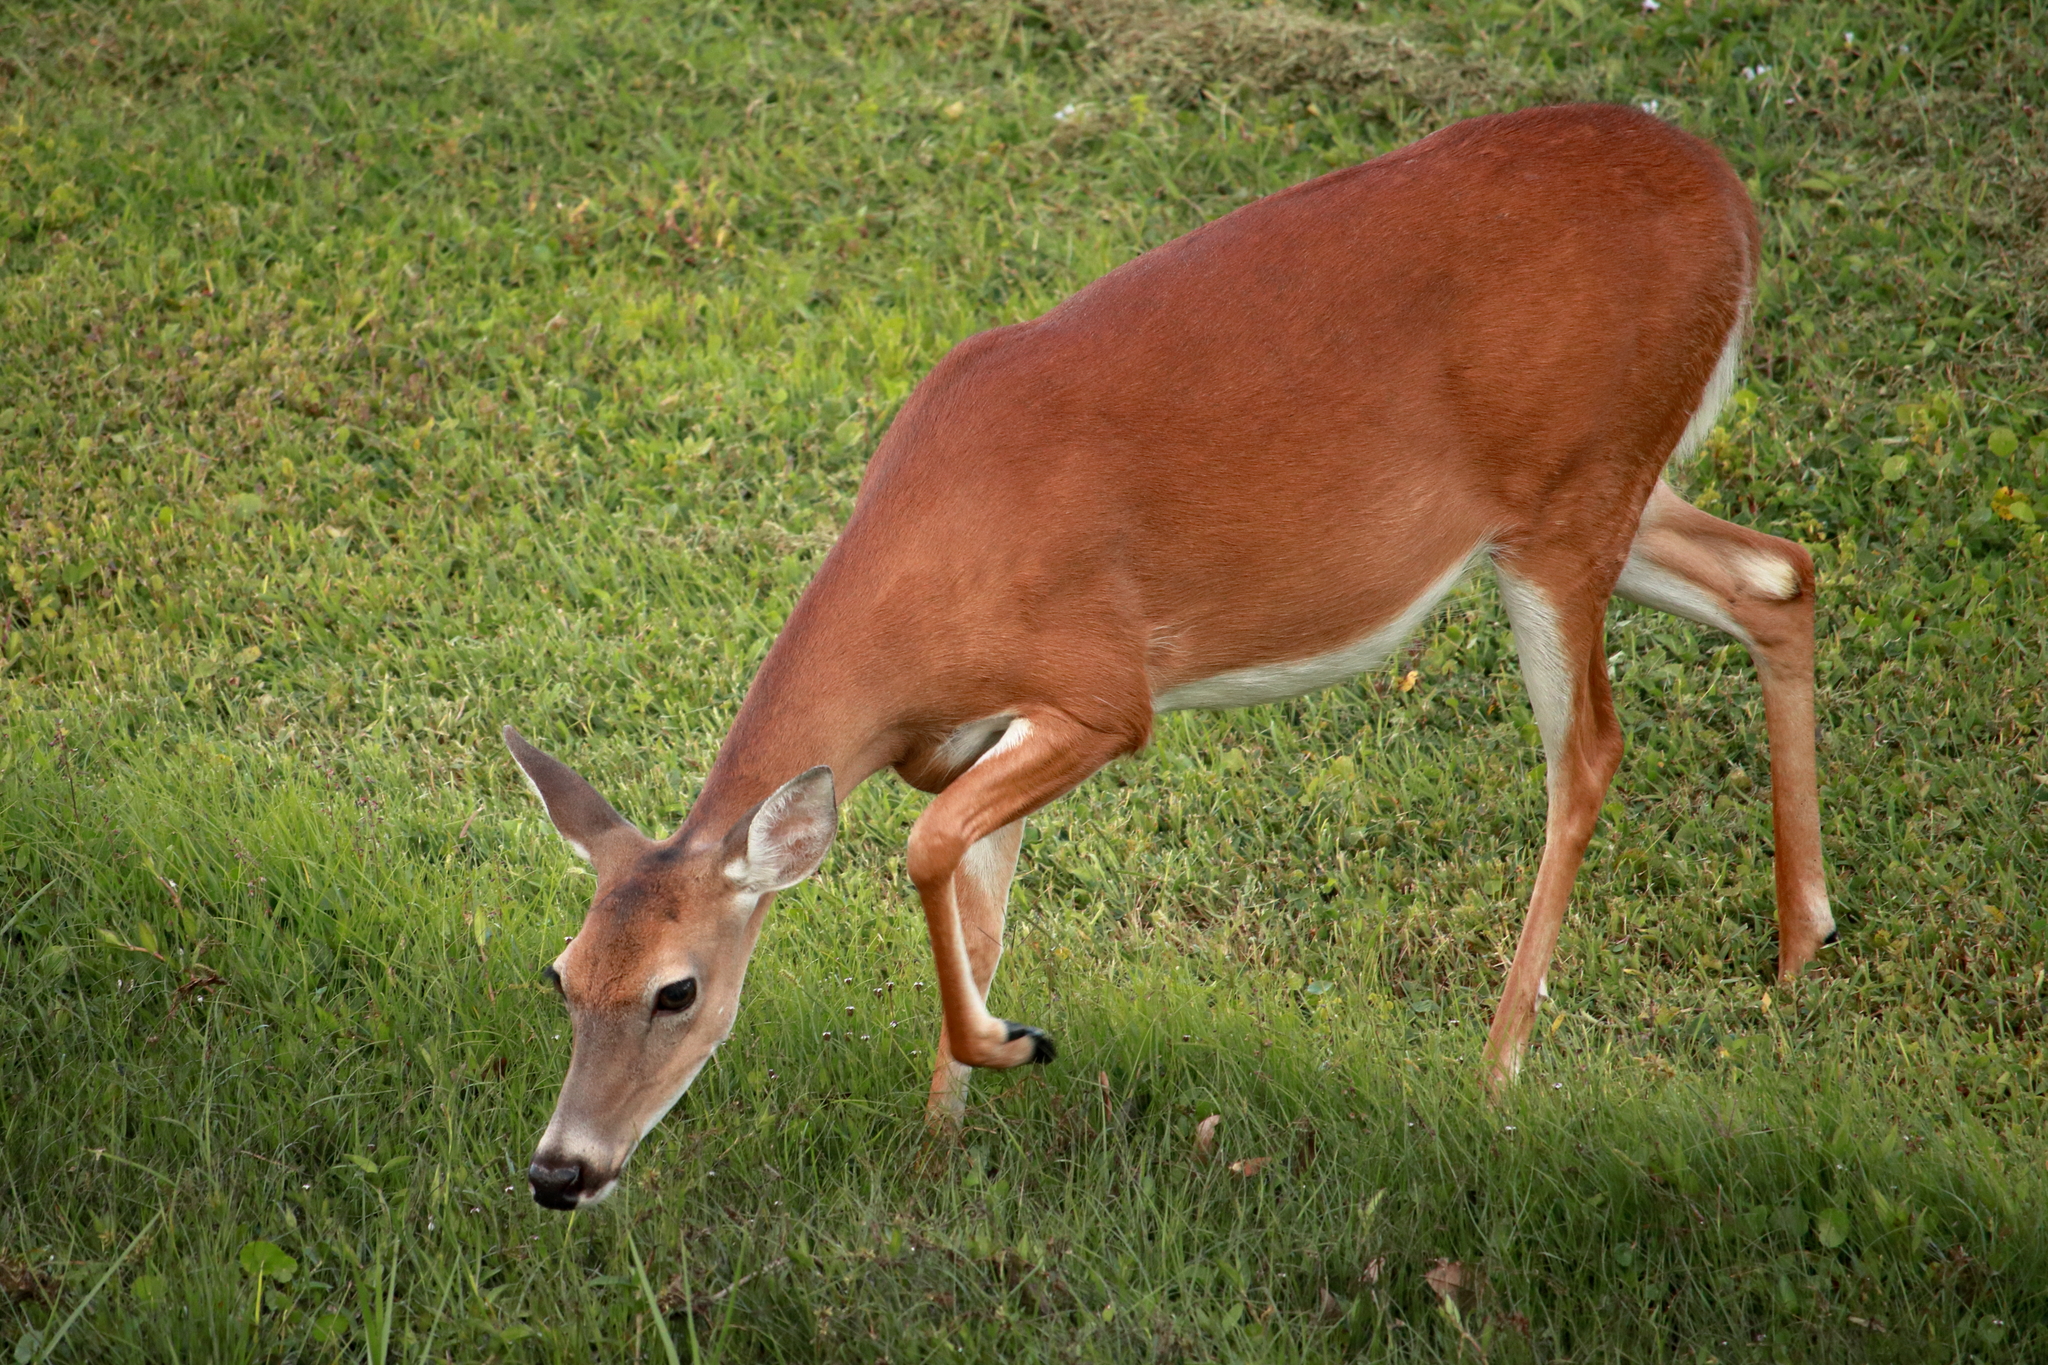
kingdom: Animalia
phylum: Chordata
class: Mammalia
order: Artiodactyla
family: Cervidae
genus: Odocoileus
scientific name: Odocoileus virginianus
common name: White-tailed deer
